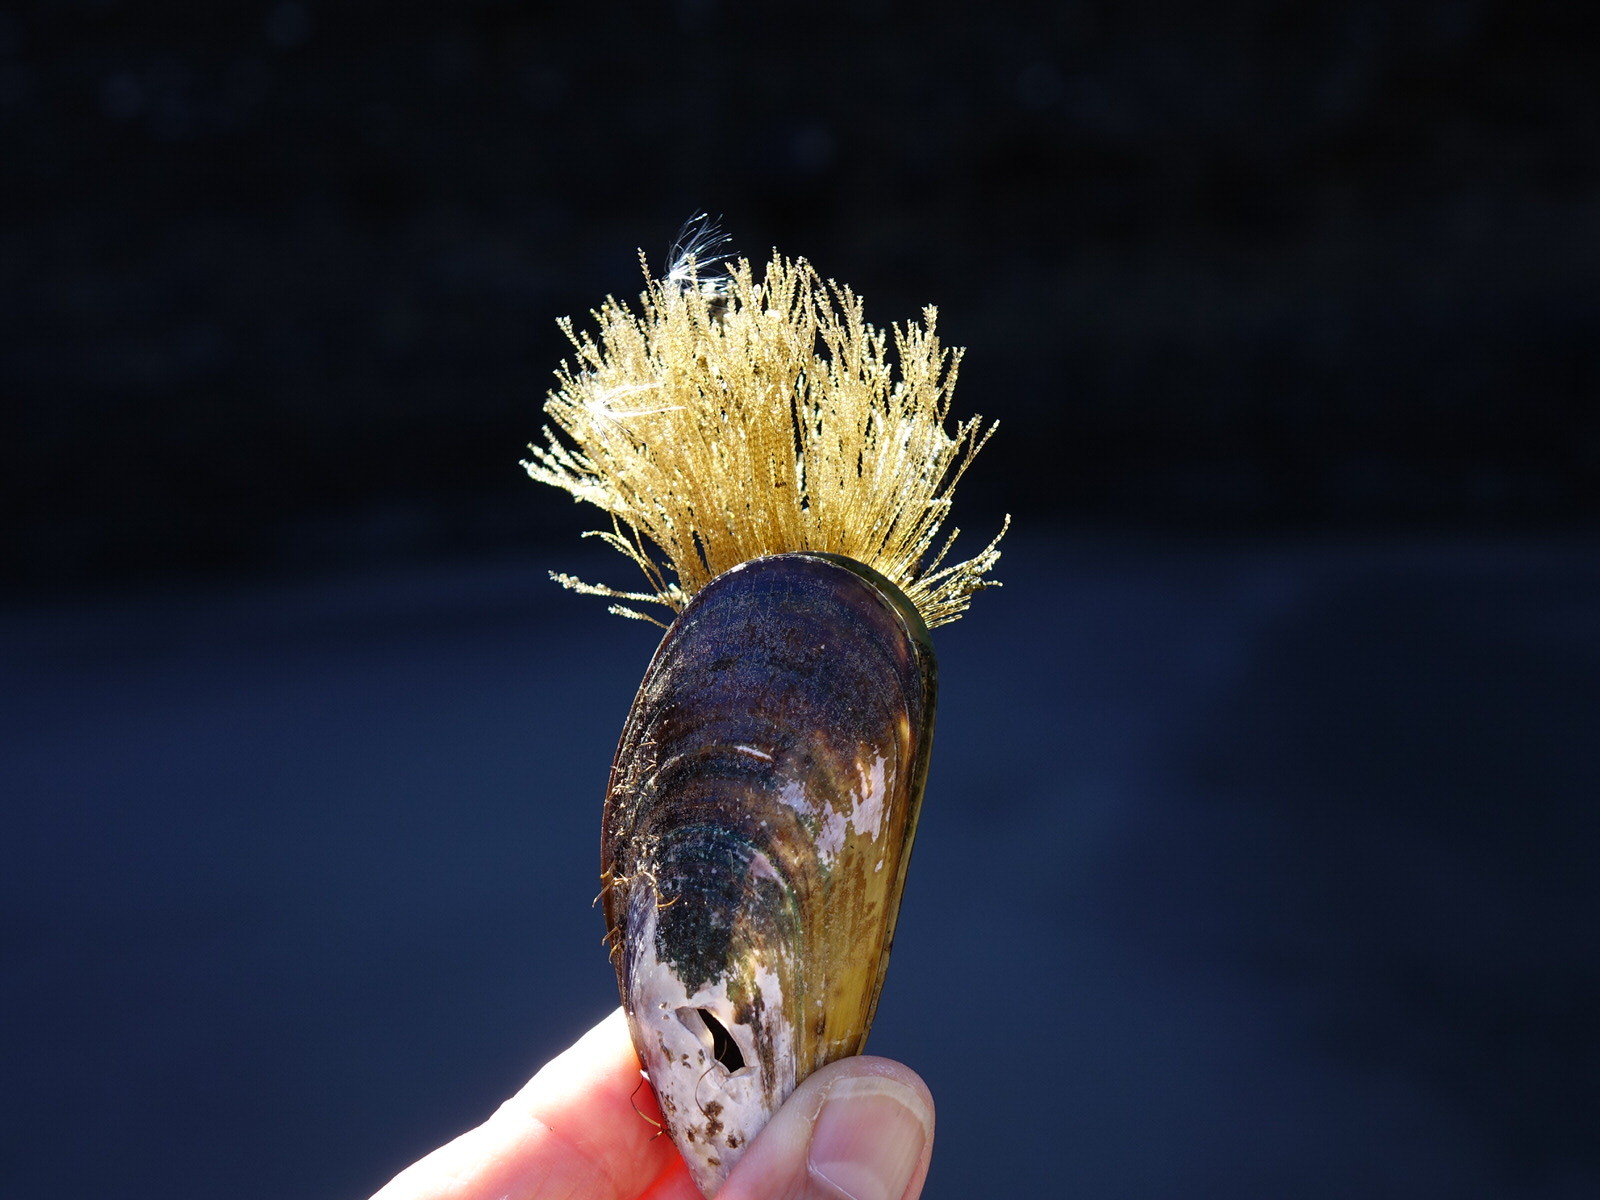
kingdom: Animalia
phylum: Cnidaria
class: Hydrozoa
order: Leptothecata
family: Sertulariidae
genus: Amphisbetia
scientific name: Amphisbetia bispinosa
